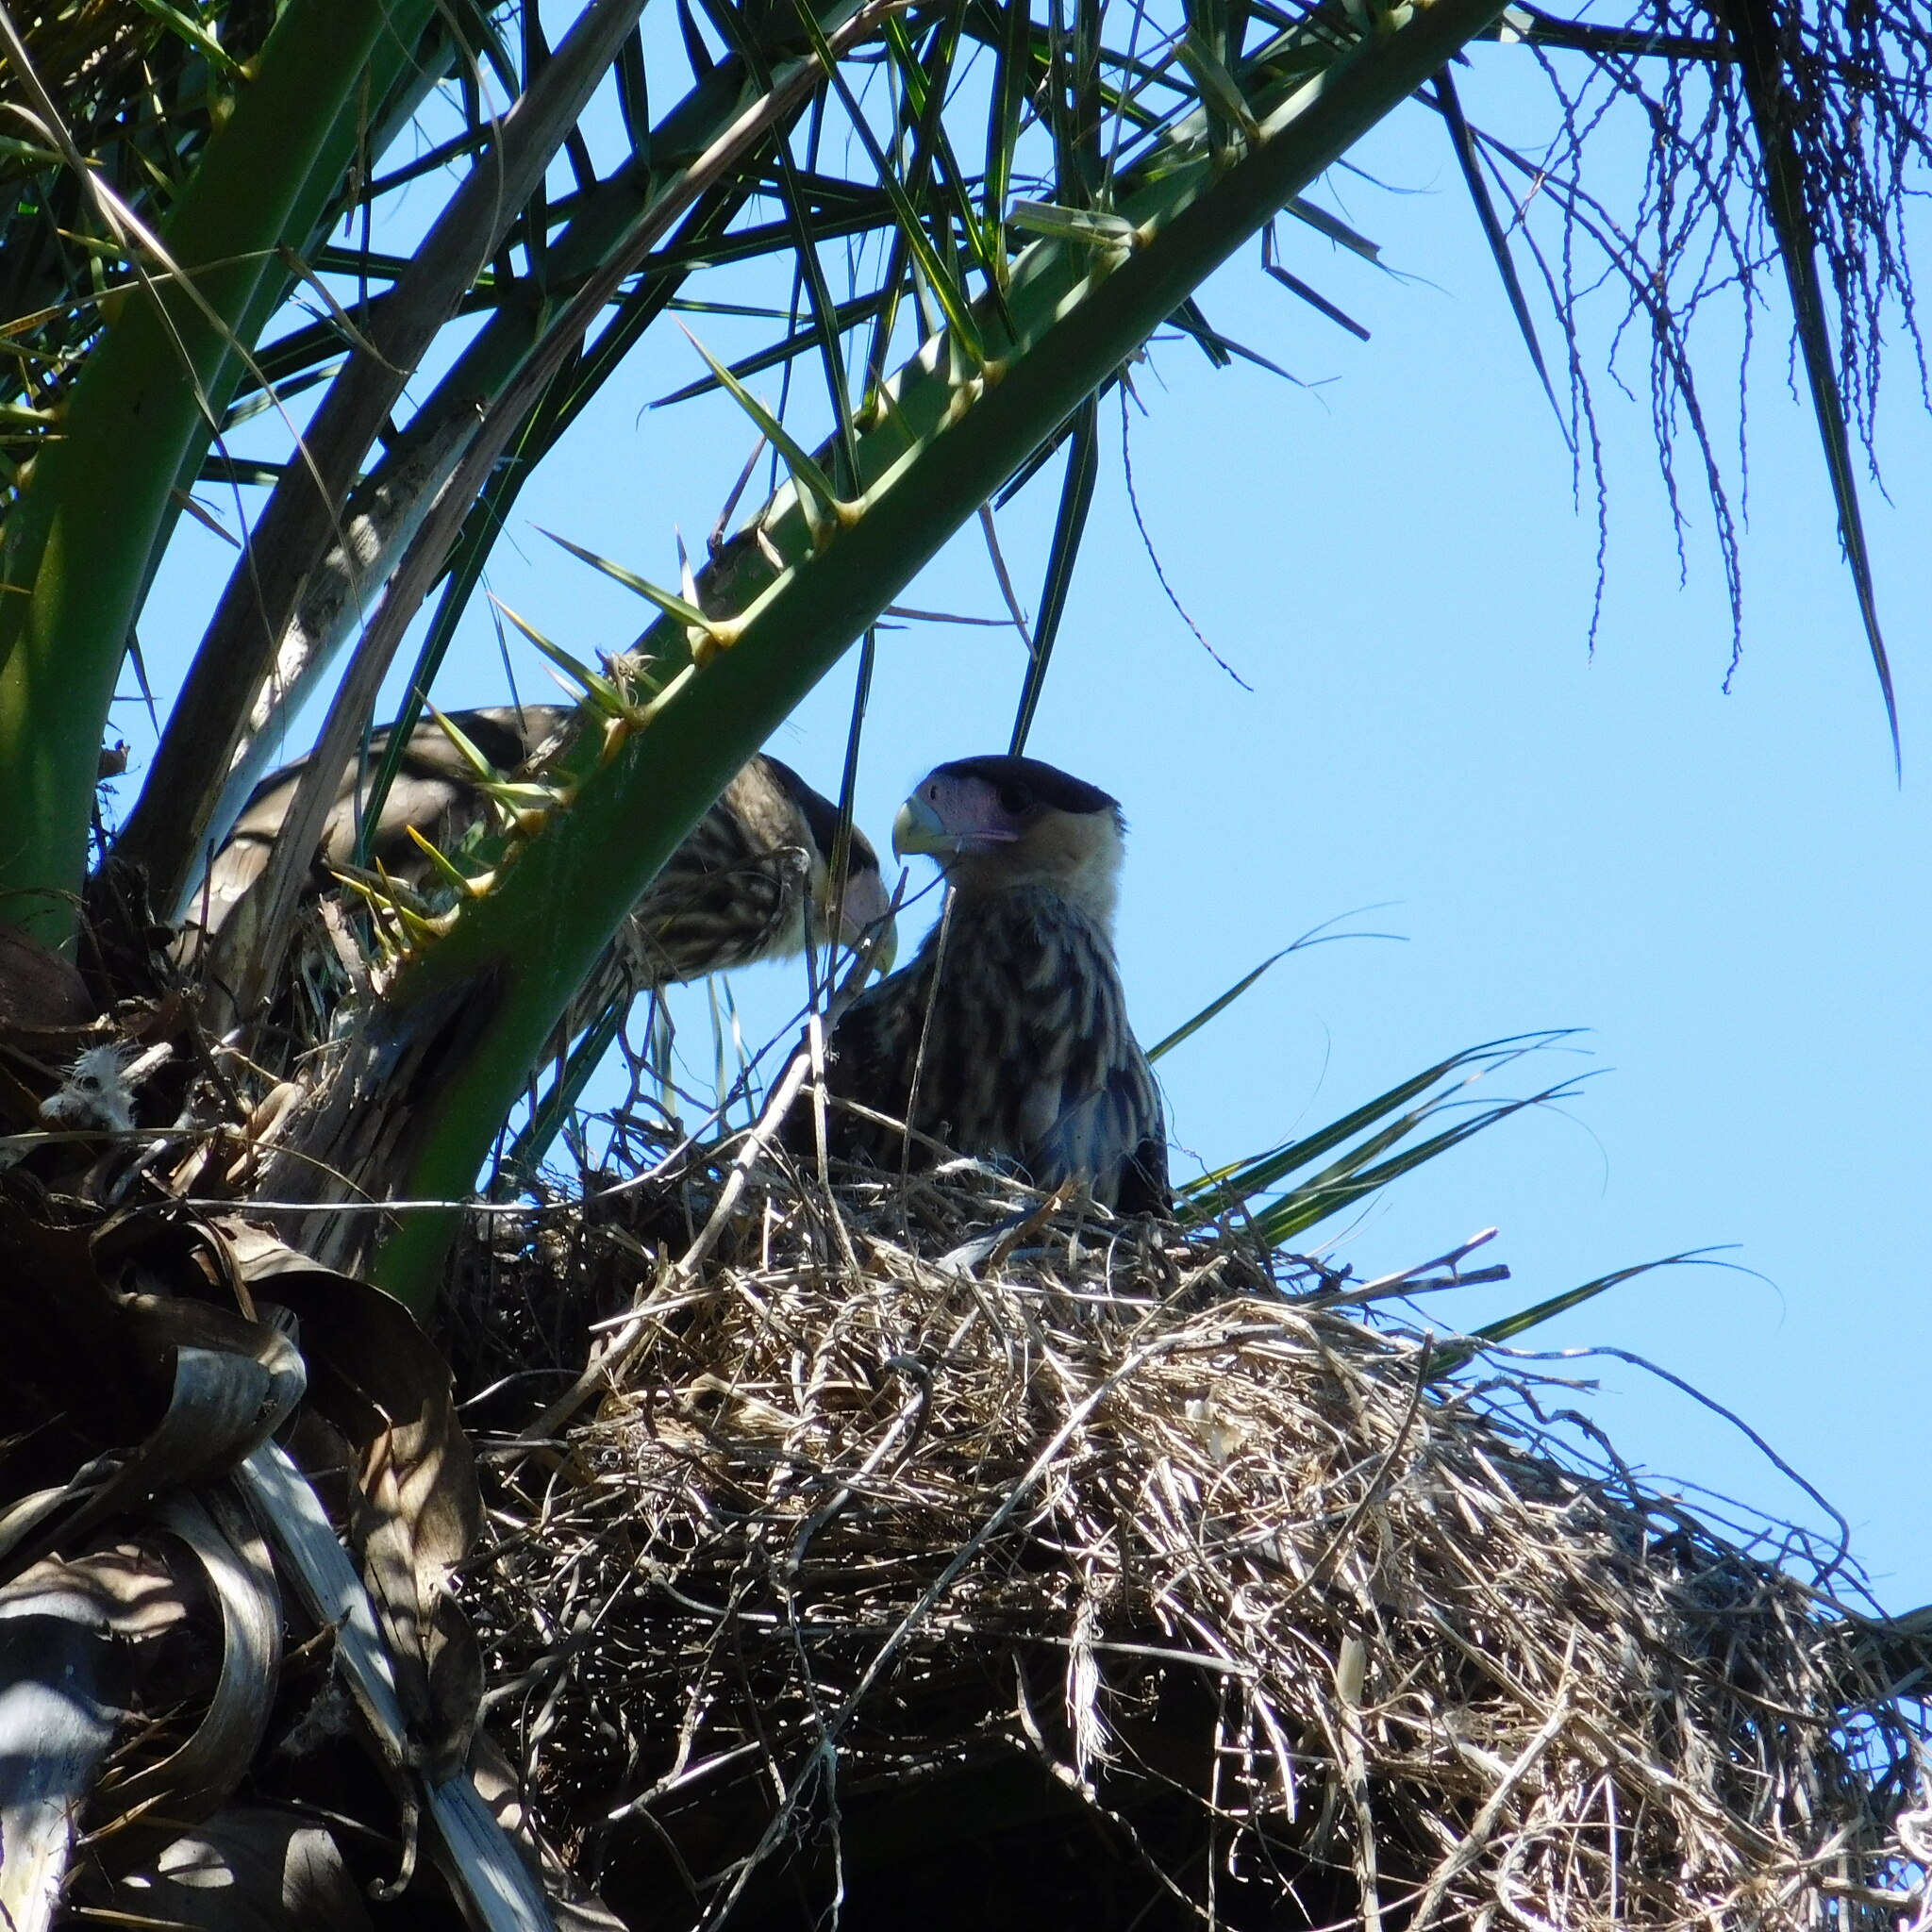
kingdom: Animalia
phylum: Chordata
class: Aves
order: Falconiformes
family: Falconidae
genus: Caracara
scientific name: Caracara plancus
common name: Southern caracara
